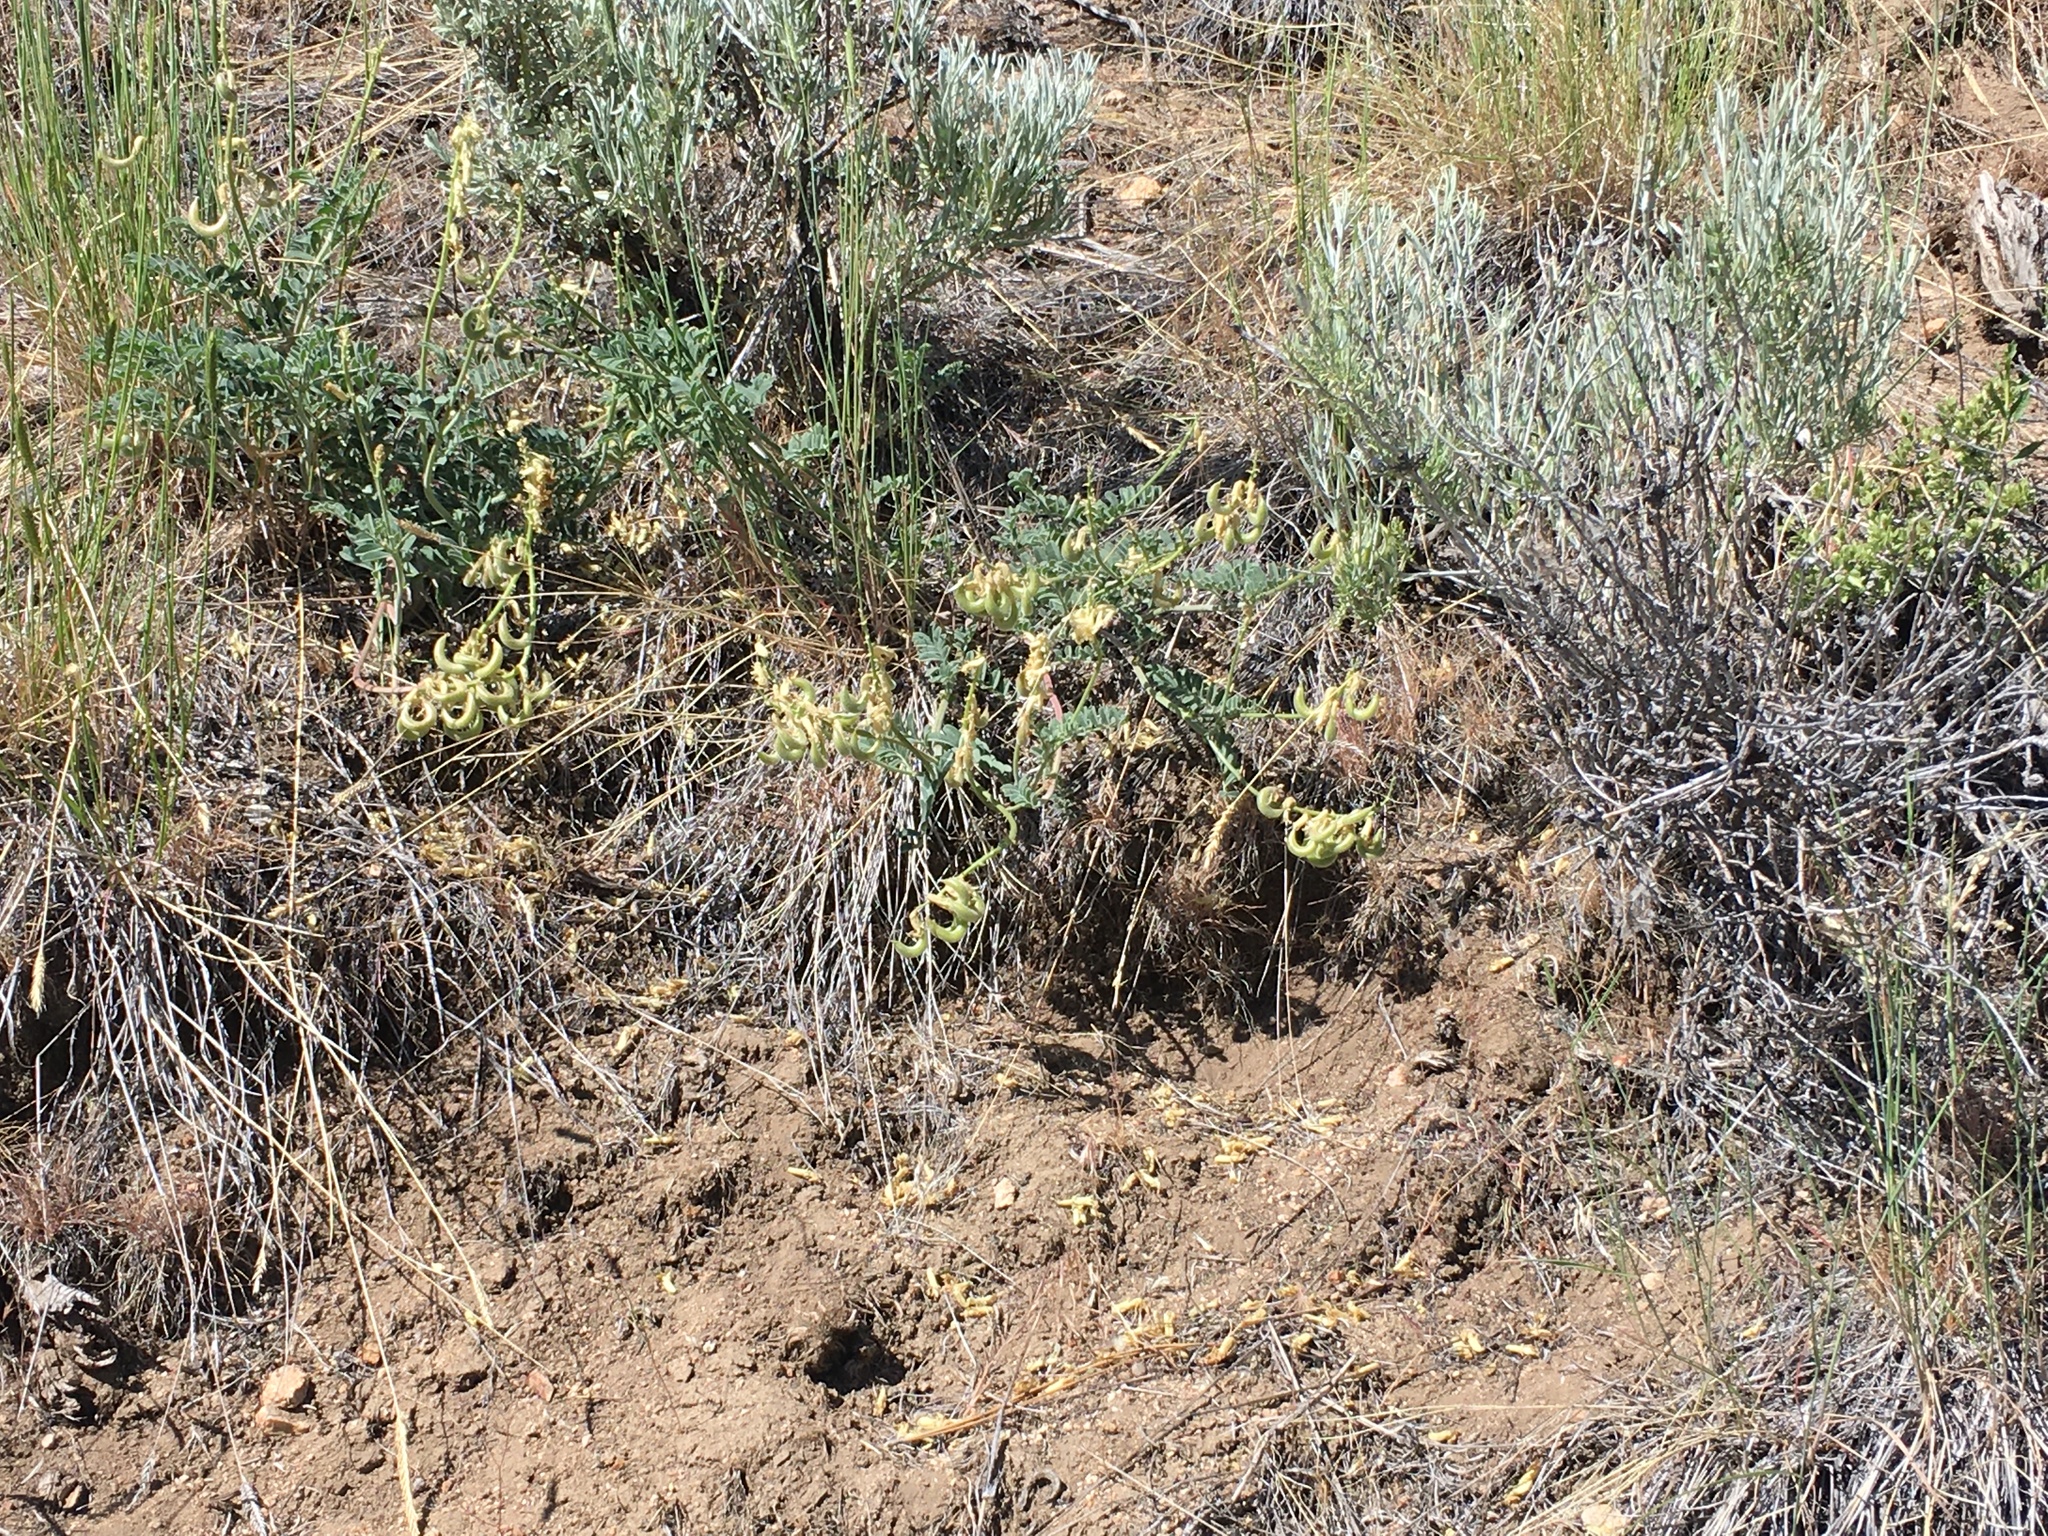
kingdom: Plantae
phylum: Tracheophyta
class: Magnoliopsida
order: Fabales
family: Fabaceae
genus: Astragalus
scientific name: Astragalus gibbsii
